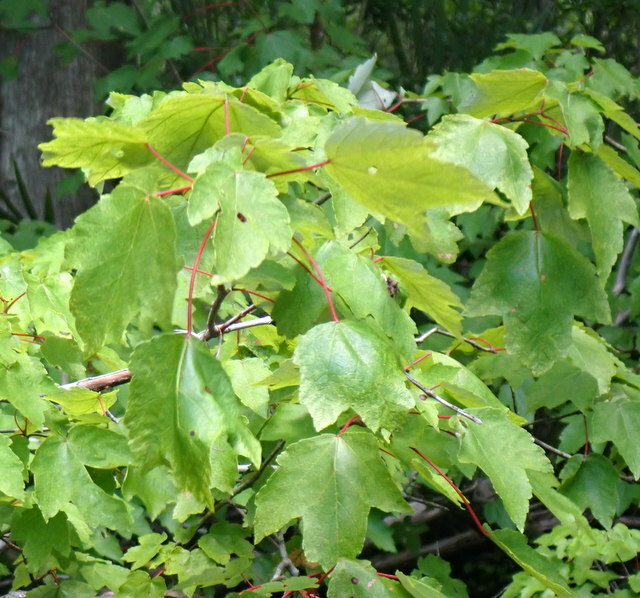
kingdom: Plantae
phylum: Tracheophyta
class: Magnoliopsida
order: Sapindales
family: Sapindaceae
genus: Acer
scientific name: Acer rubrum
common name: Red maple
